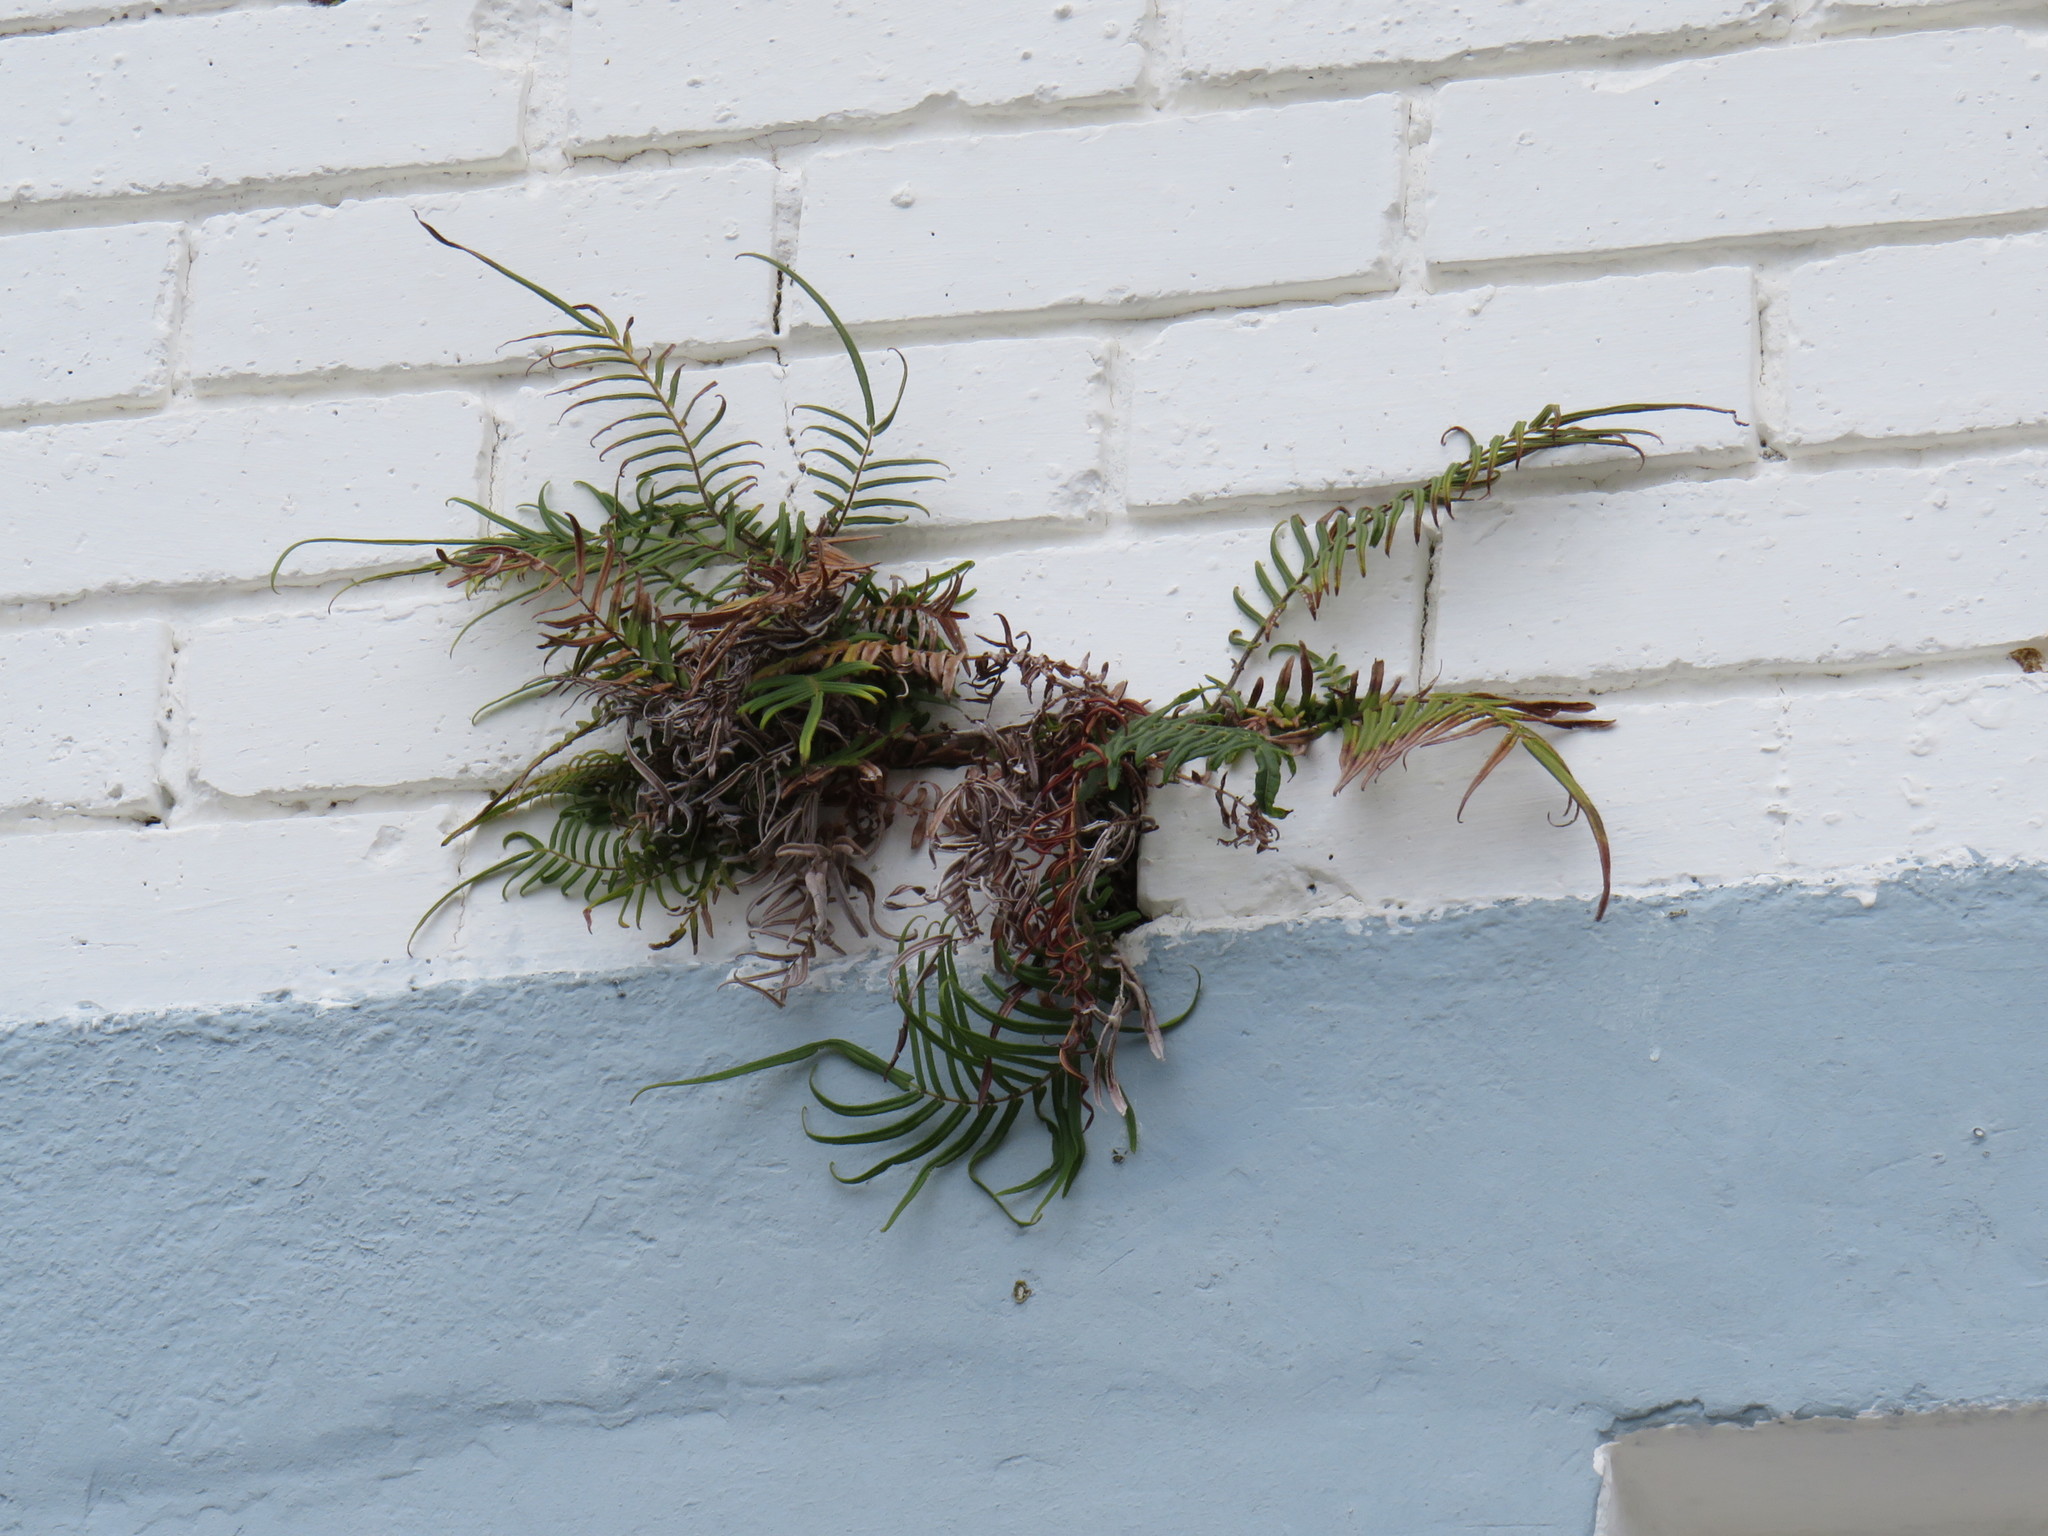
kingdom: Plantae
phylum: Tracheophyta
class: Polypodiopsida
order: Polypodiales
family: Pteridaceae
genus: Pteris
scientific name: Pteris vittata
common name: Ladder brake
